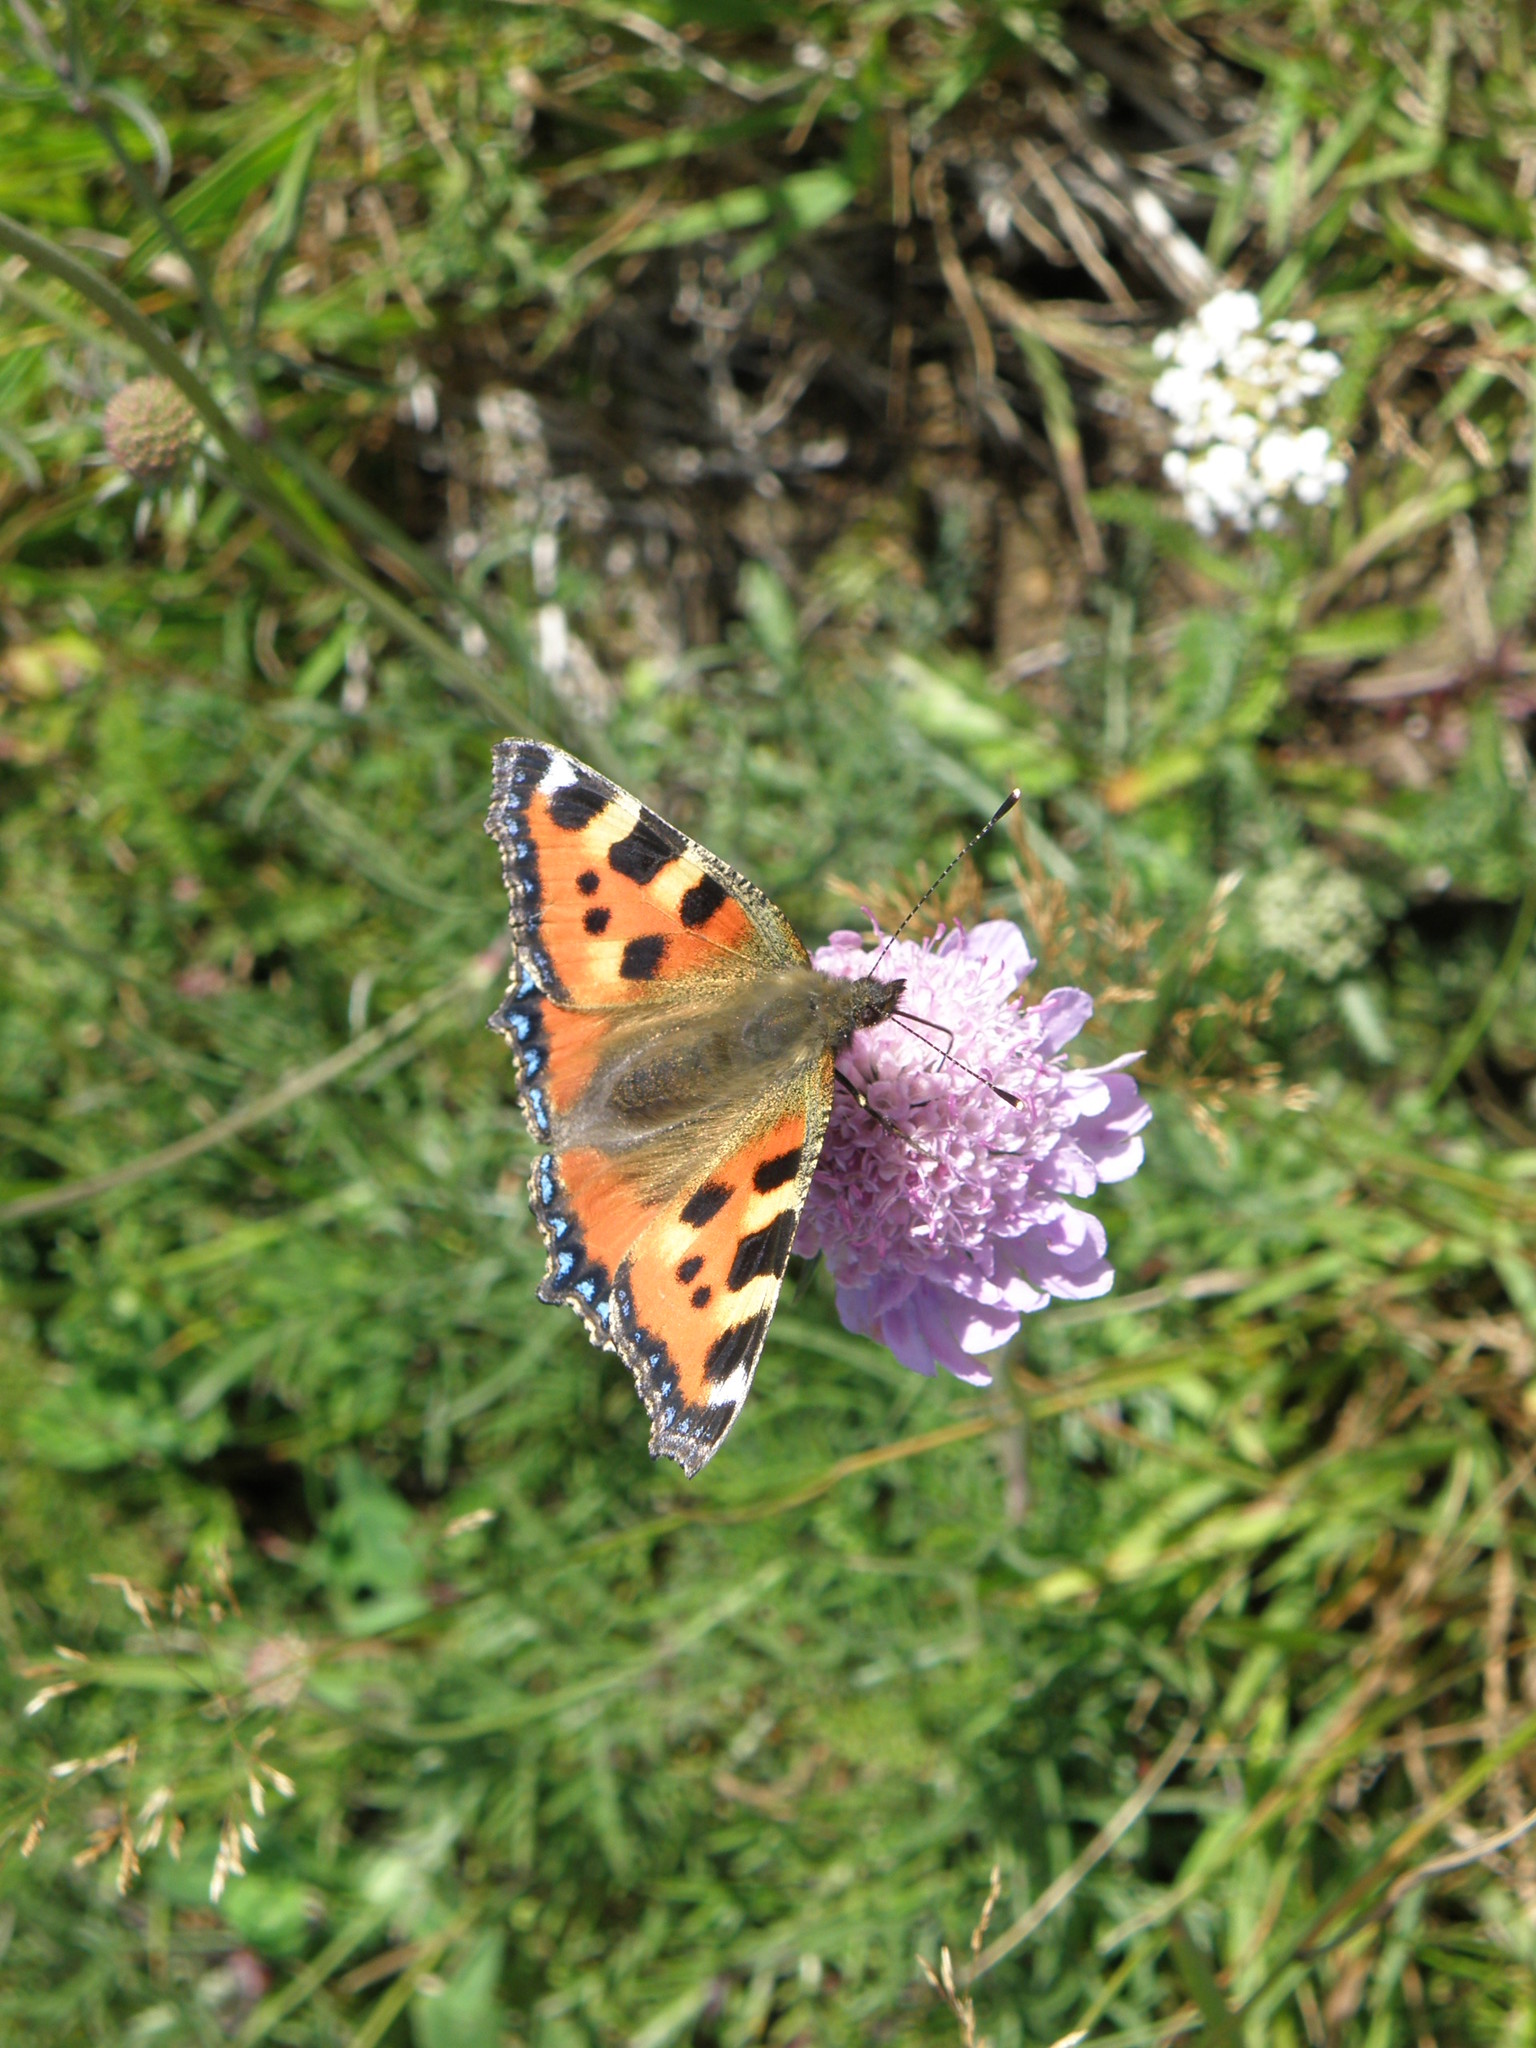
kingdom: Animalia
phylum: Arthropoda
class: Insecta
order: Lepidoptera
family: Nymphalidae
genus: Aglais
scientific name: Aglais urticae
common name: Small tortoiseshell
